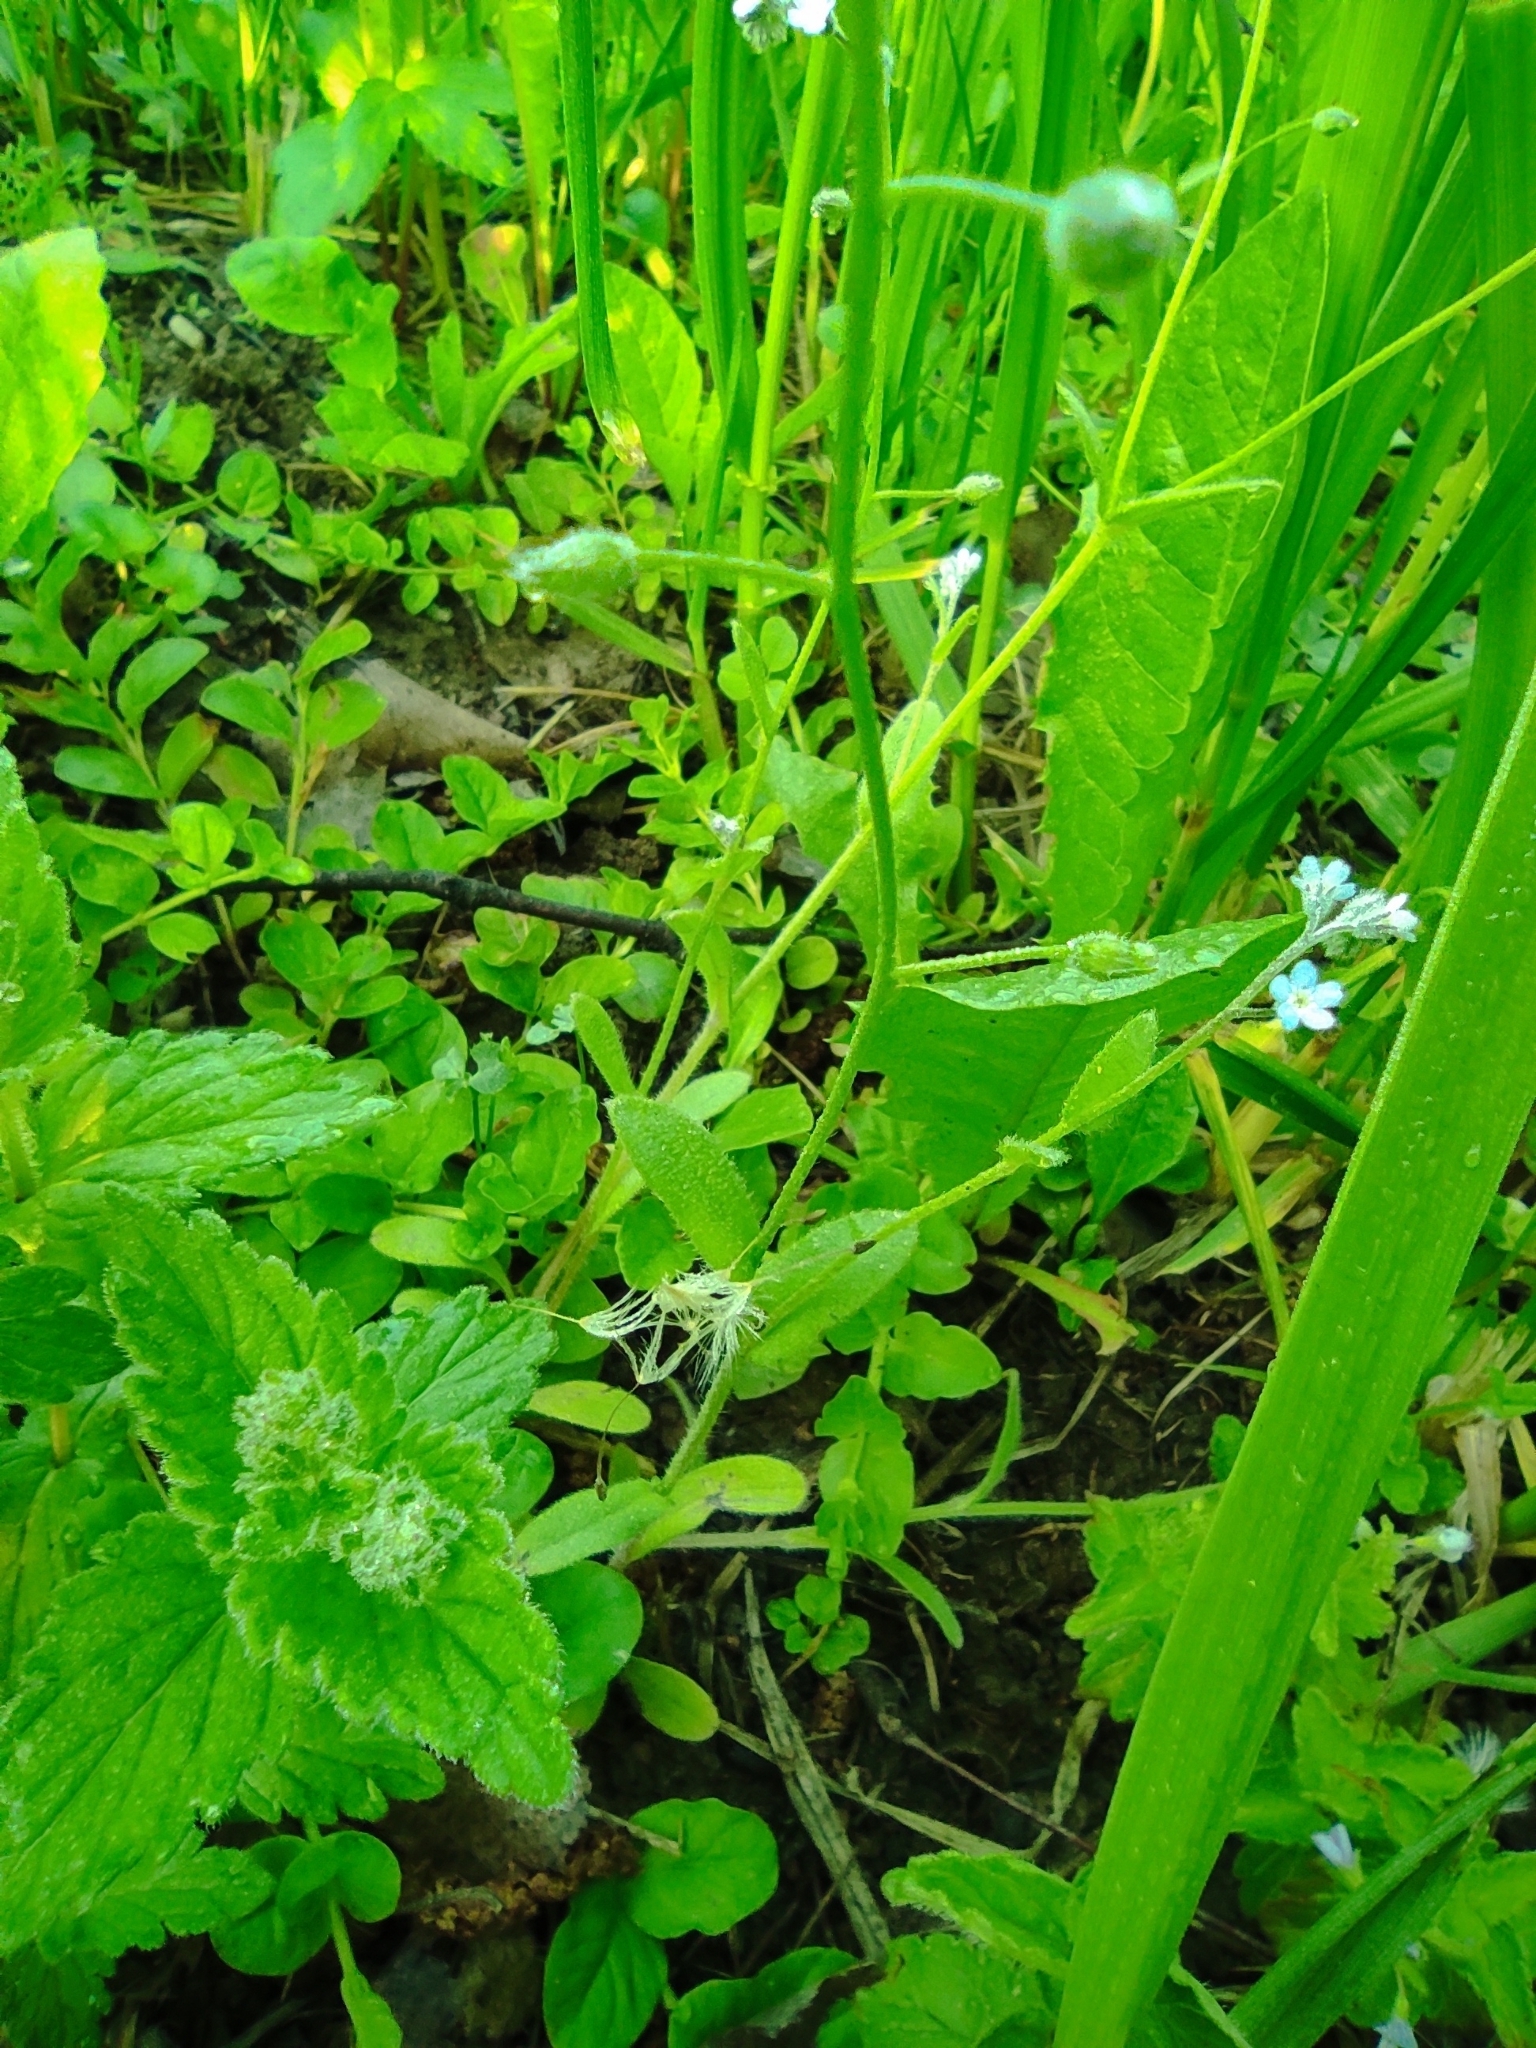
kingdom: Plantae
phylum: Tracheophyta
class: Magnoliopsida
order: Boraginales
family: Boraginaceae
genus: Myosotis
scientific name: Myosotis arvensis
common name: Field forget-me-not
